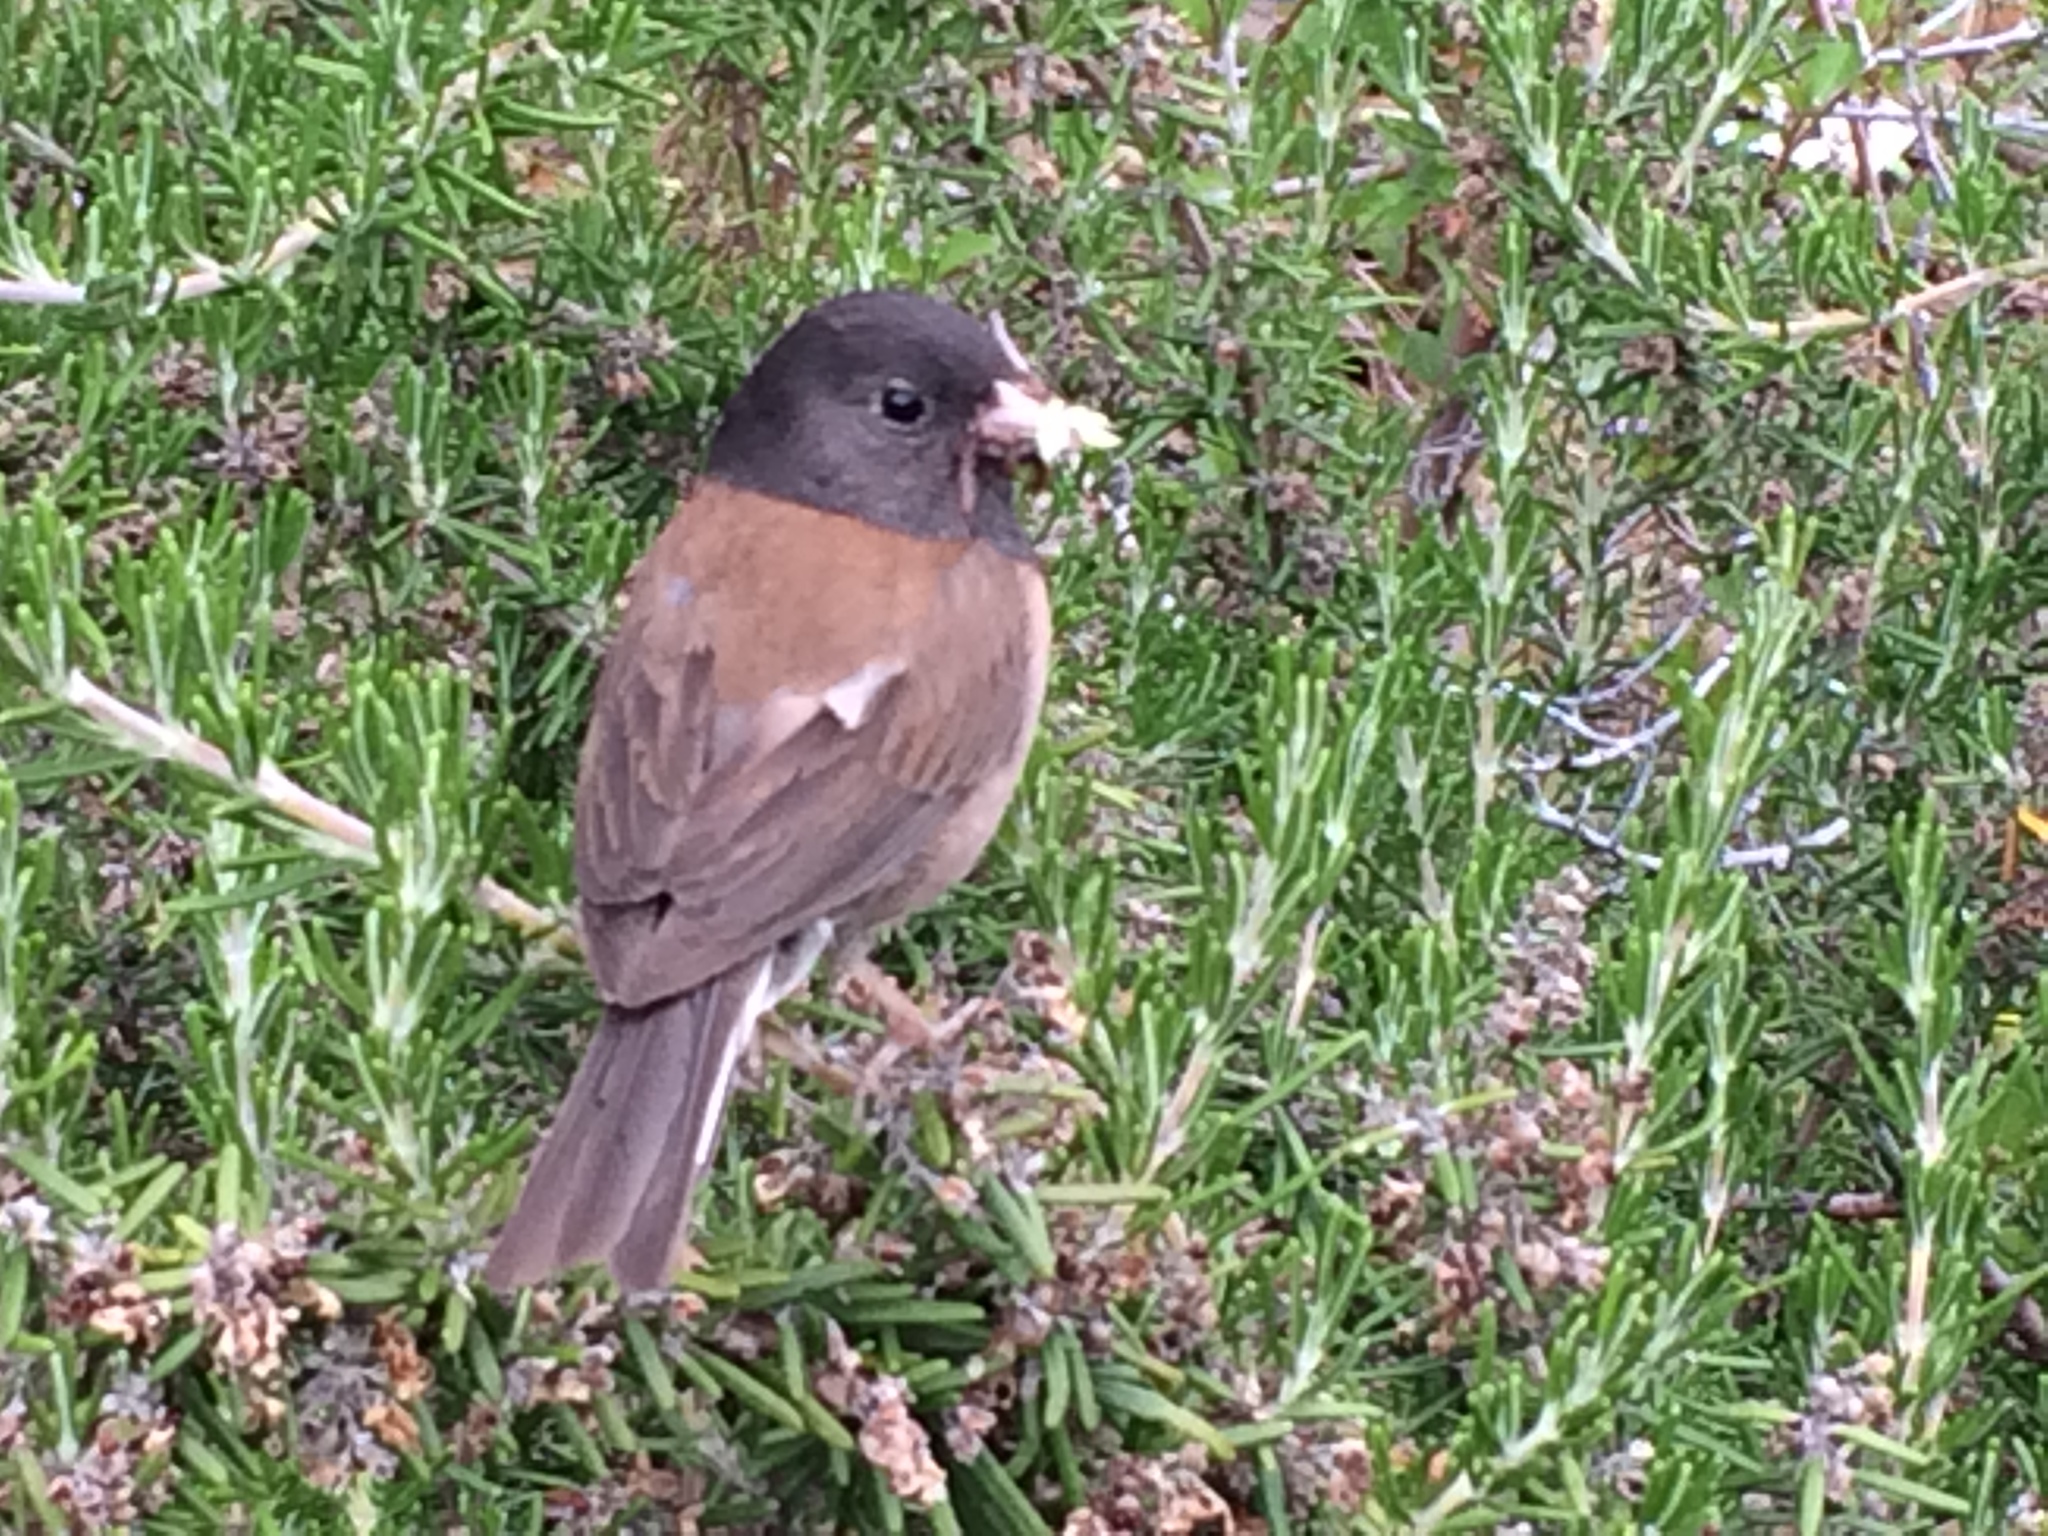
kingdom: Animalia
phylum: Chordata
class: Aves
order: Passeriformes
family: Passerellidae
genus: Junco
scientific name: Junco hyemalis
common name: Dark-eyed junco
